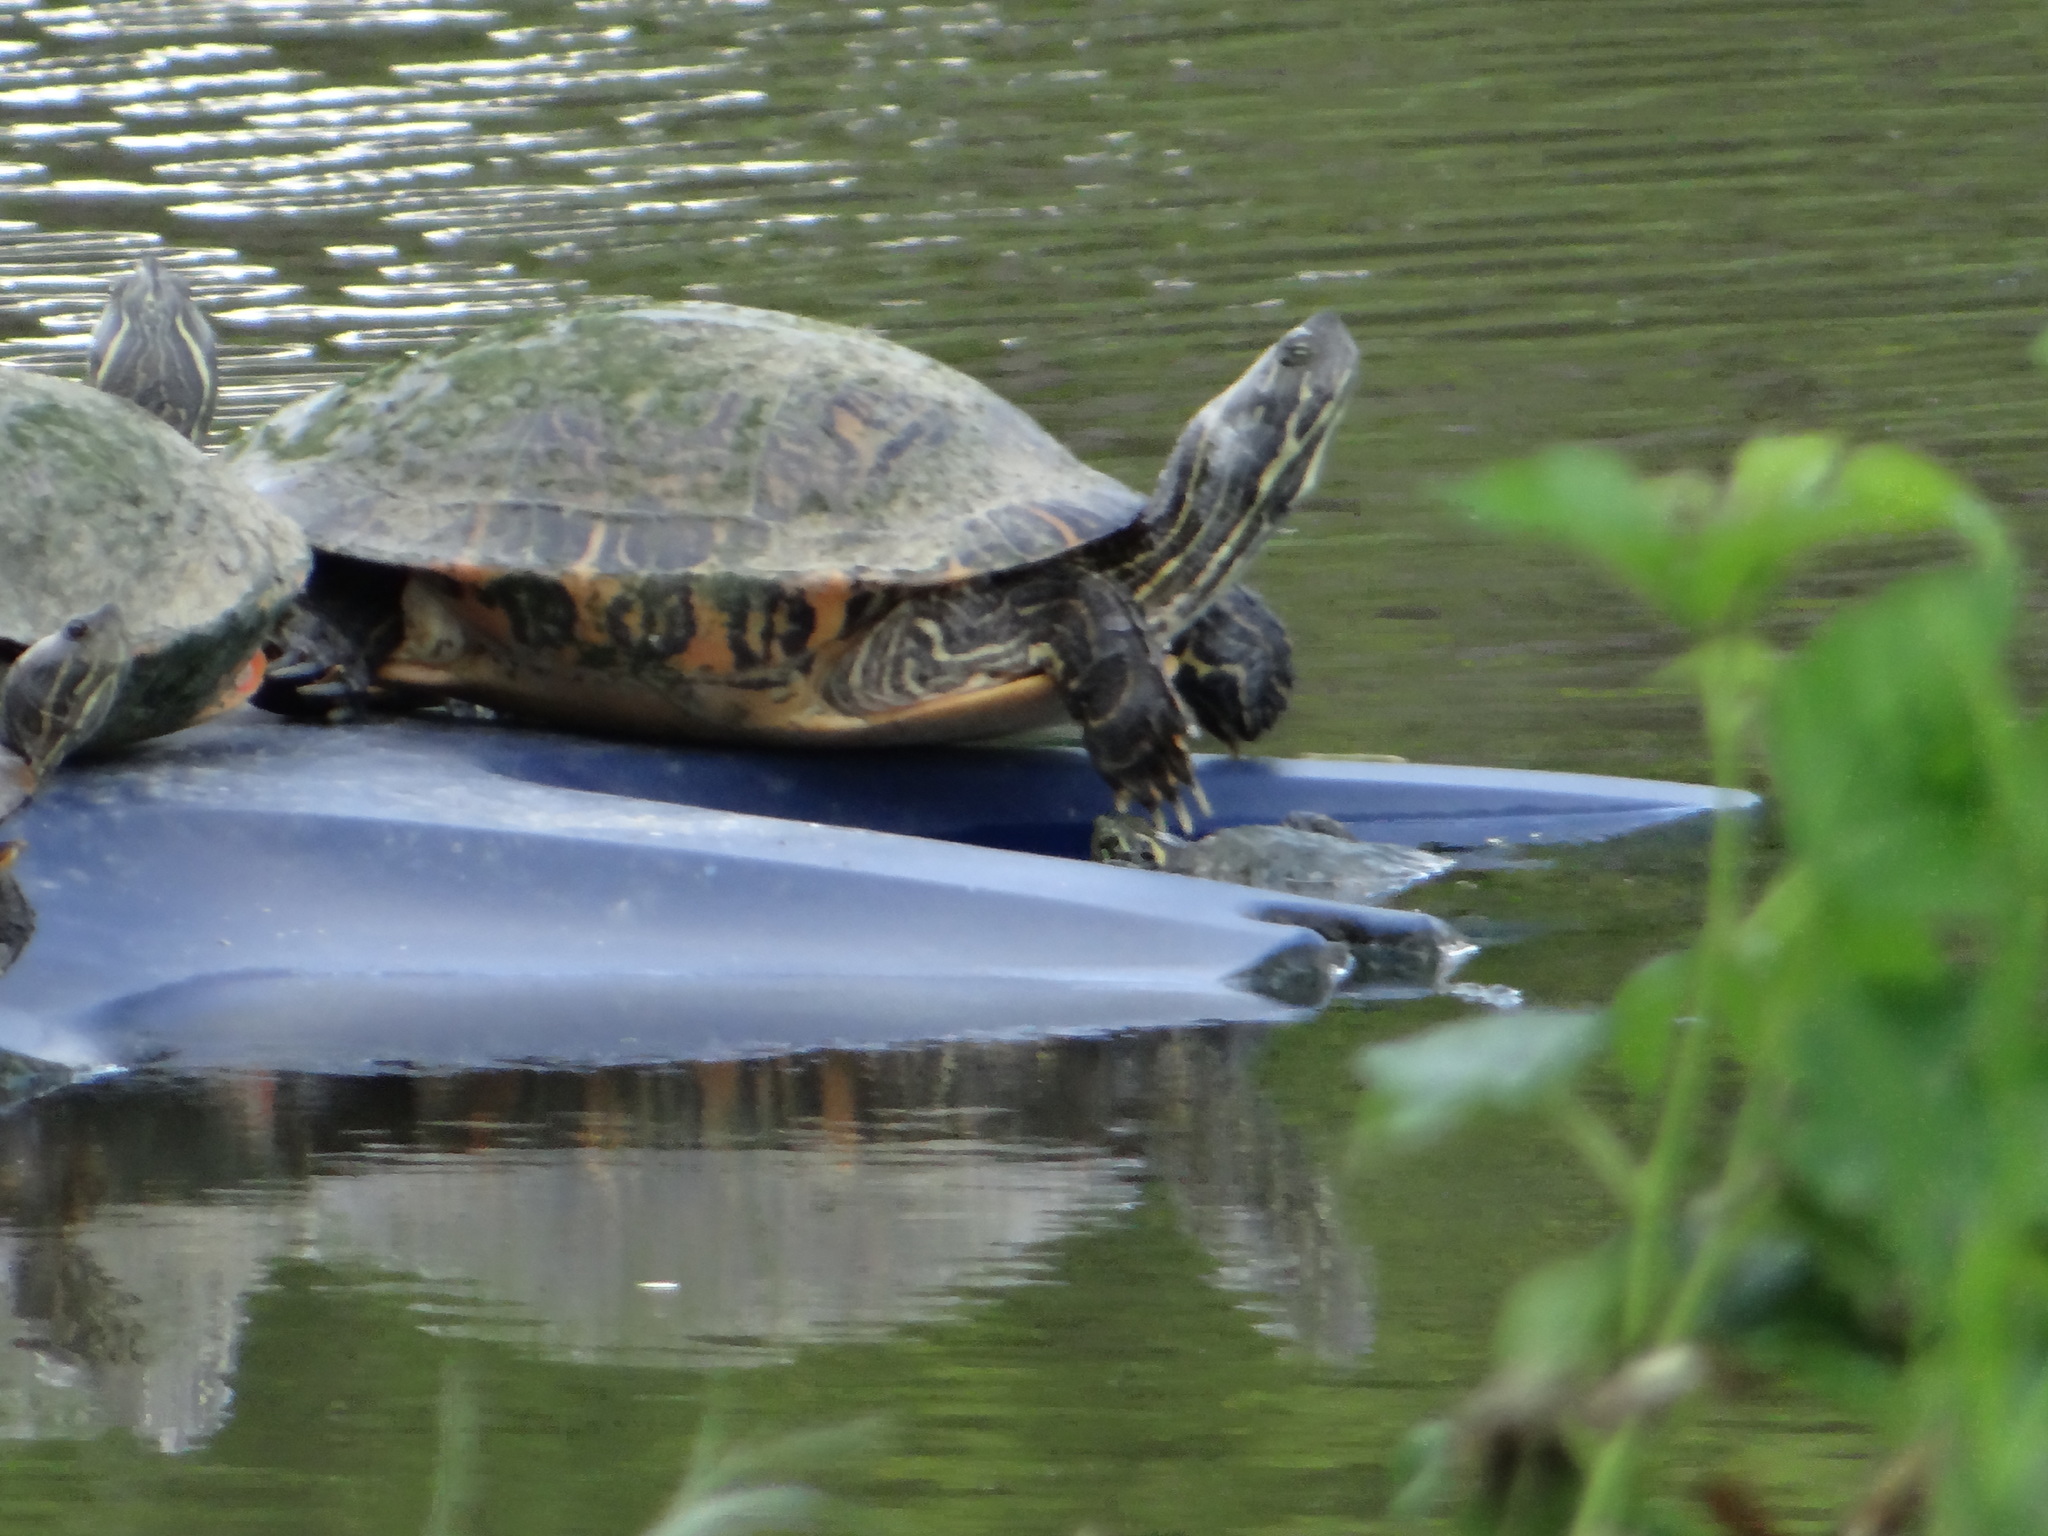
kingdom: Animalia
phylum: Chordata
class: Testudines
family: Emydidae
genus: Trachemys
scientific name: Trachemys scripta
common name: Slider
